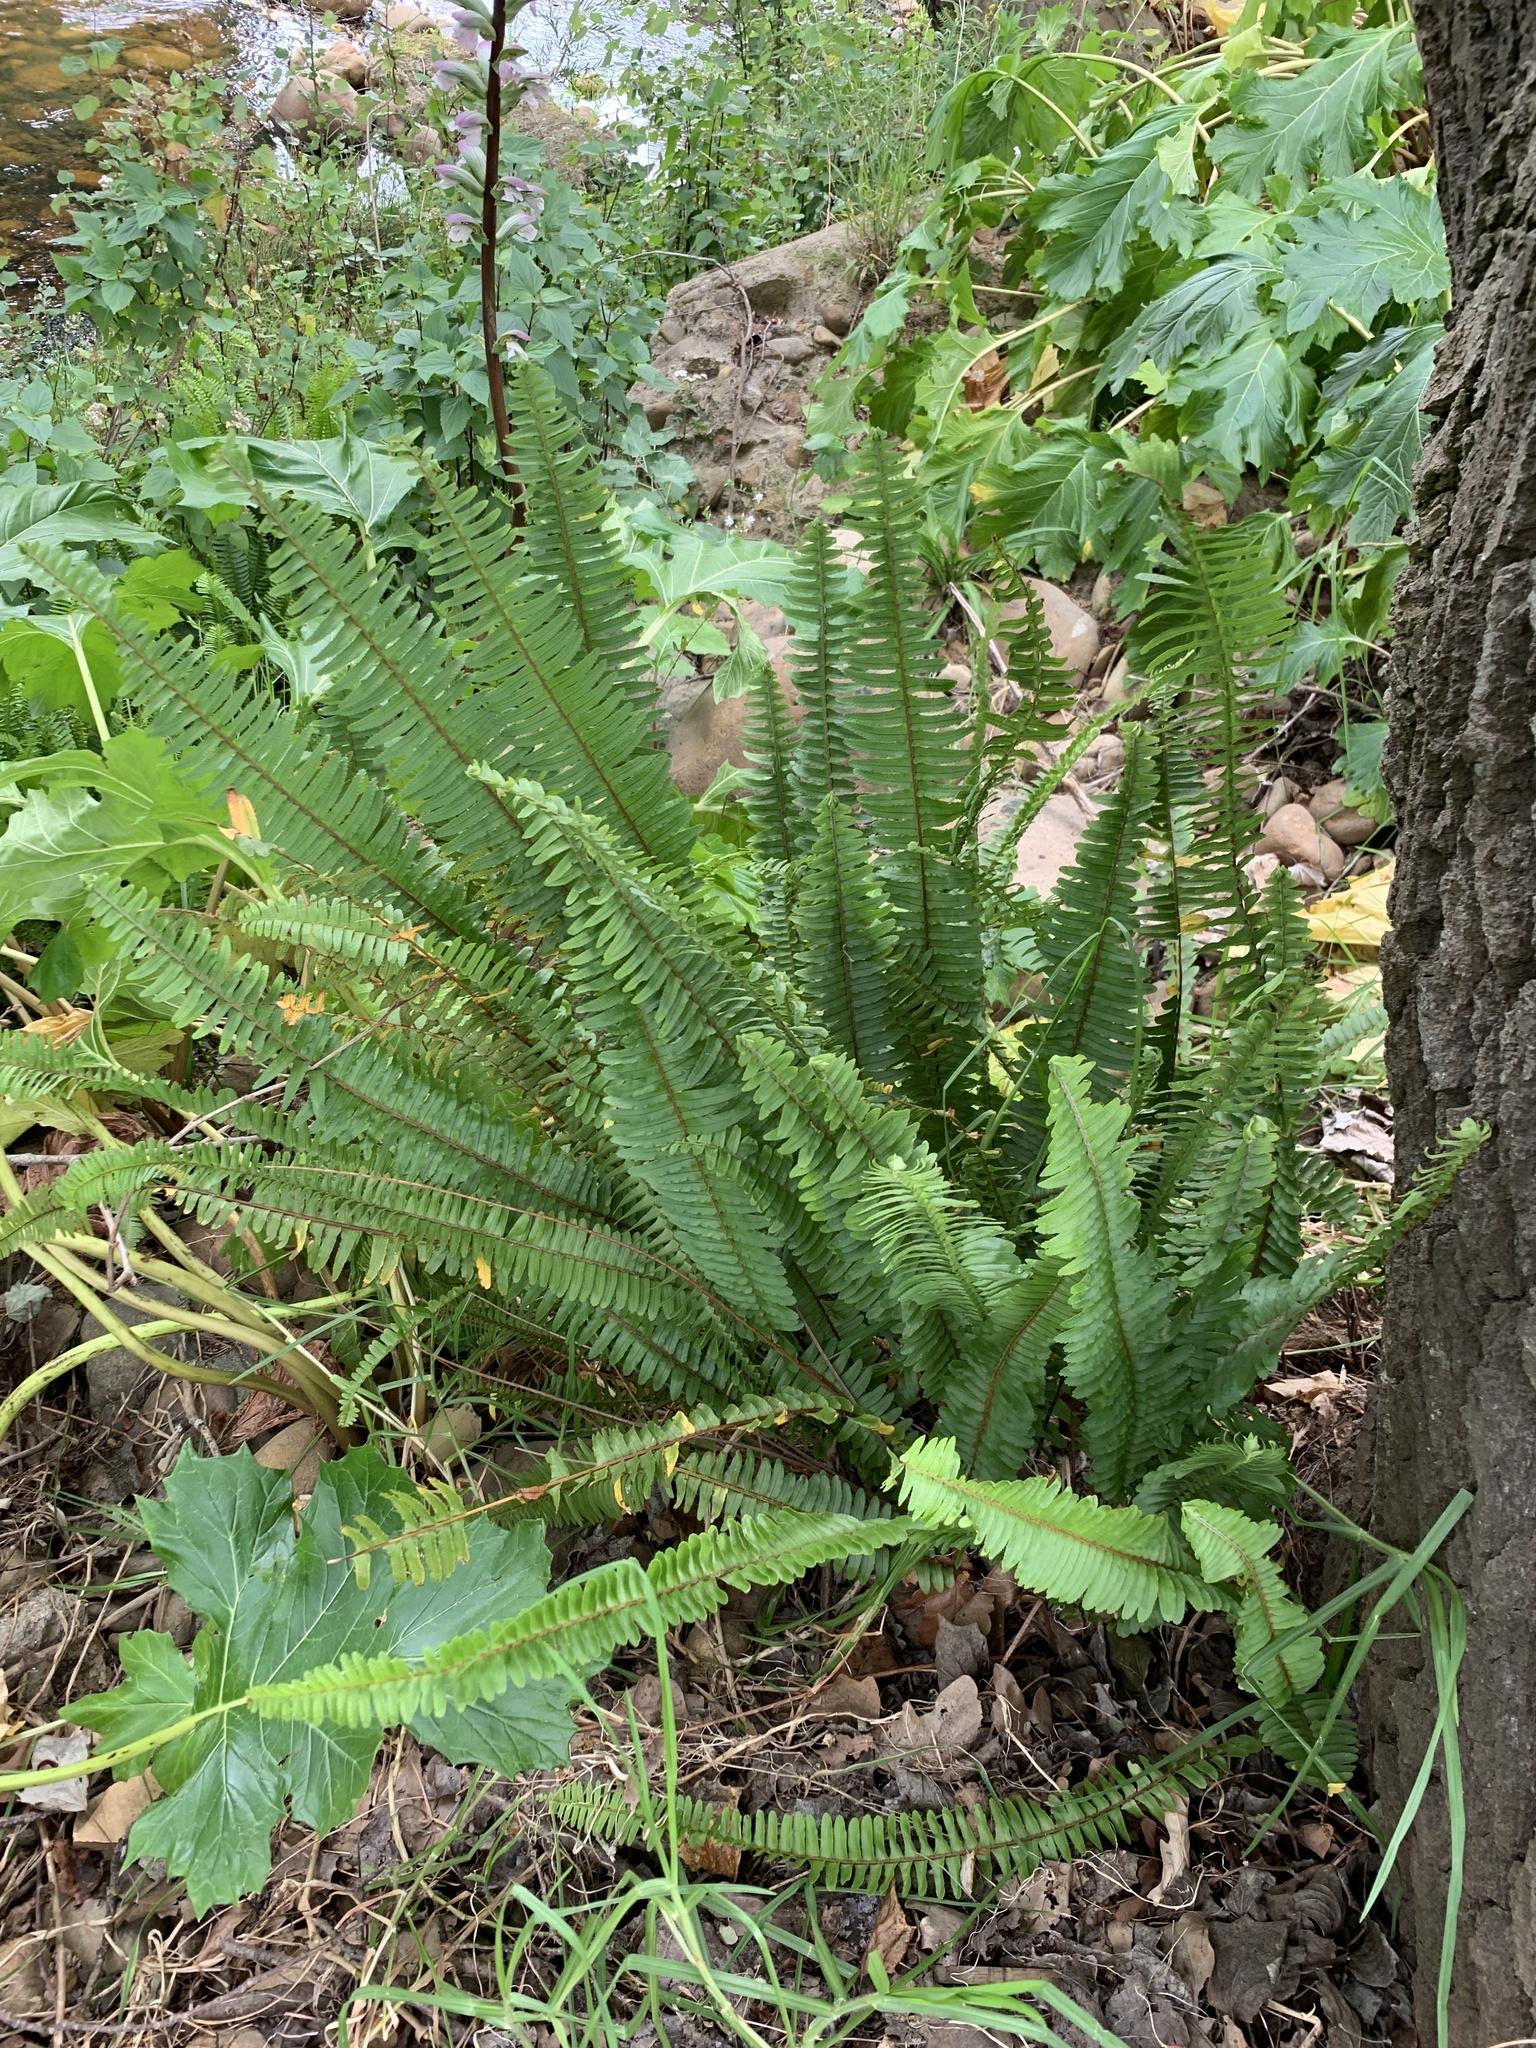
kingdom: Plantae
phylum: Tracheophyta
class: Polypodiopsida
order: Polypodiales
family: Nephrolepidaceae
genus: Nephrolepis
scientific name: Nephrolepis cordifolia
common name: Narrow swordfern
